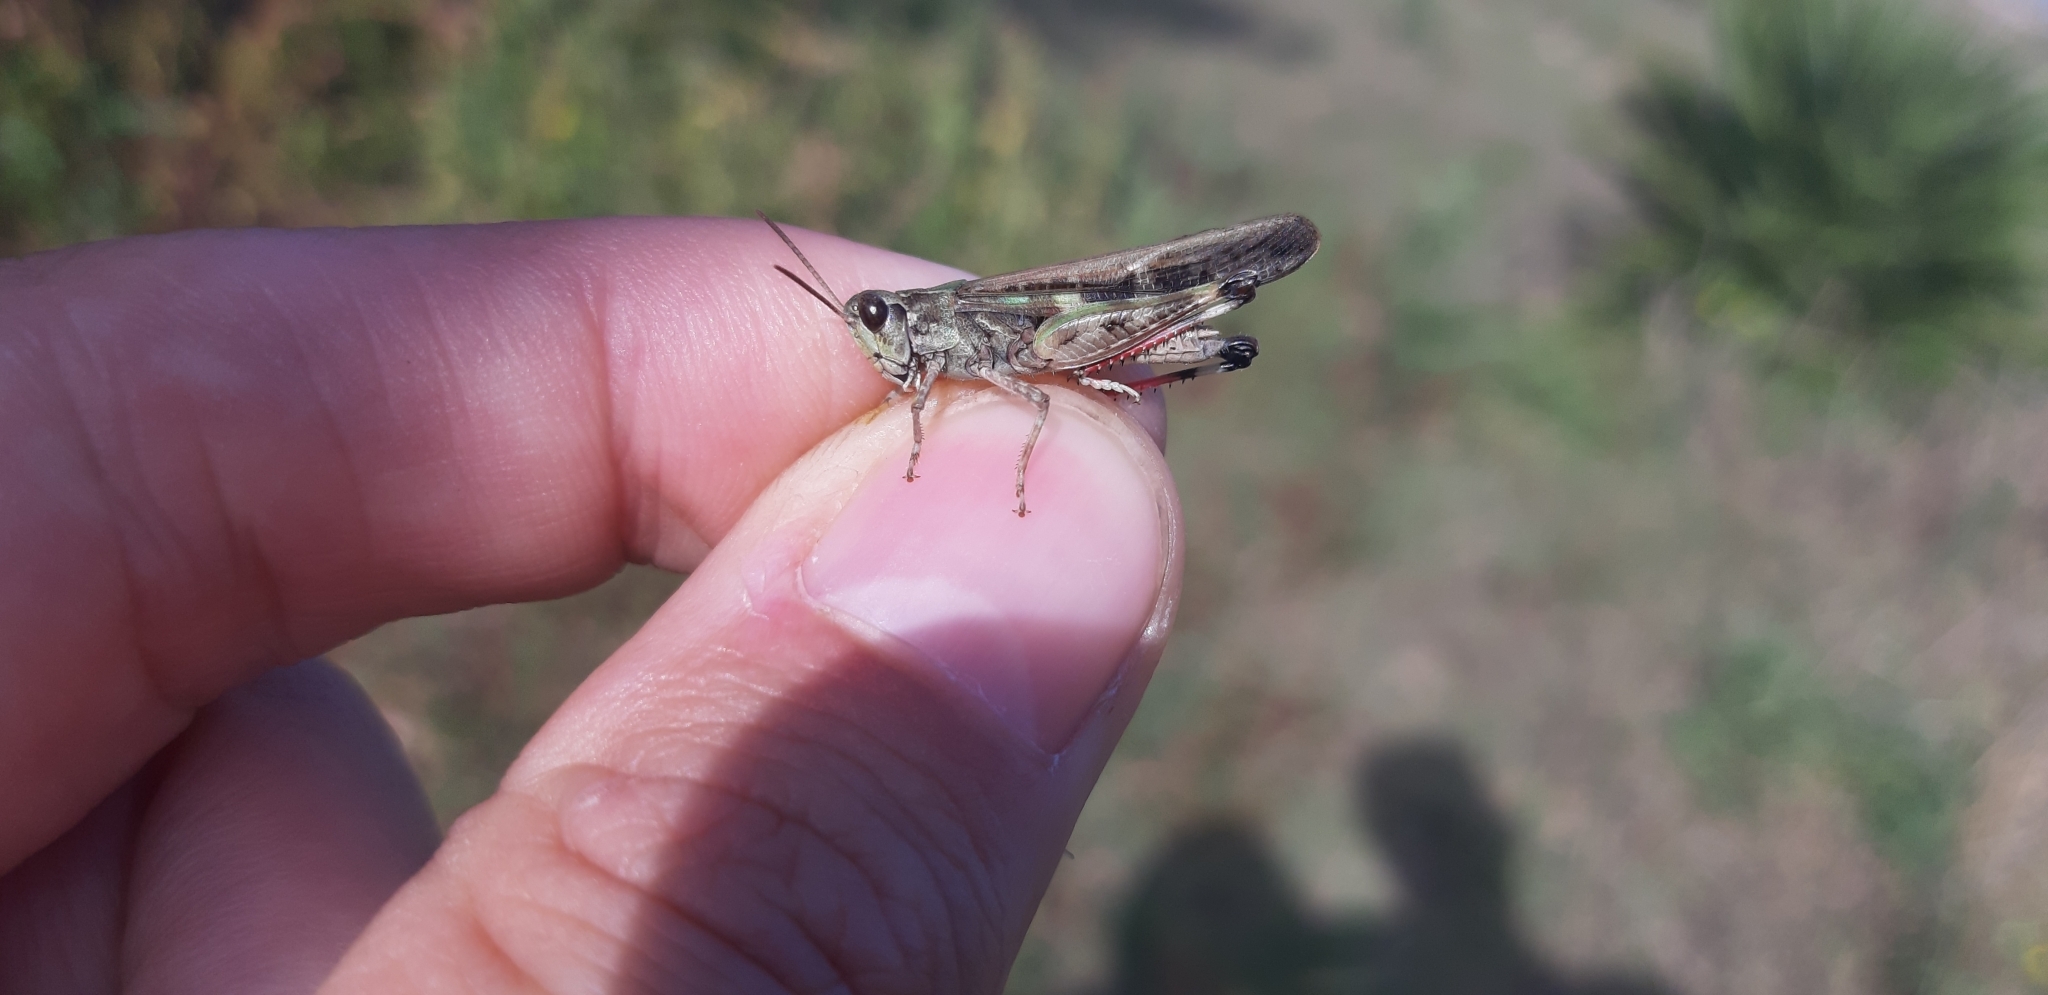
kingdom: Animalia
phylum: Arthropoda
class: Insecta
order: Orthoptera
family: Acrididae
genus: Aiolopus
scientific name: Aiolopus thalassinus
